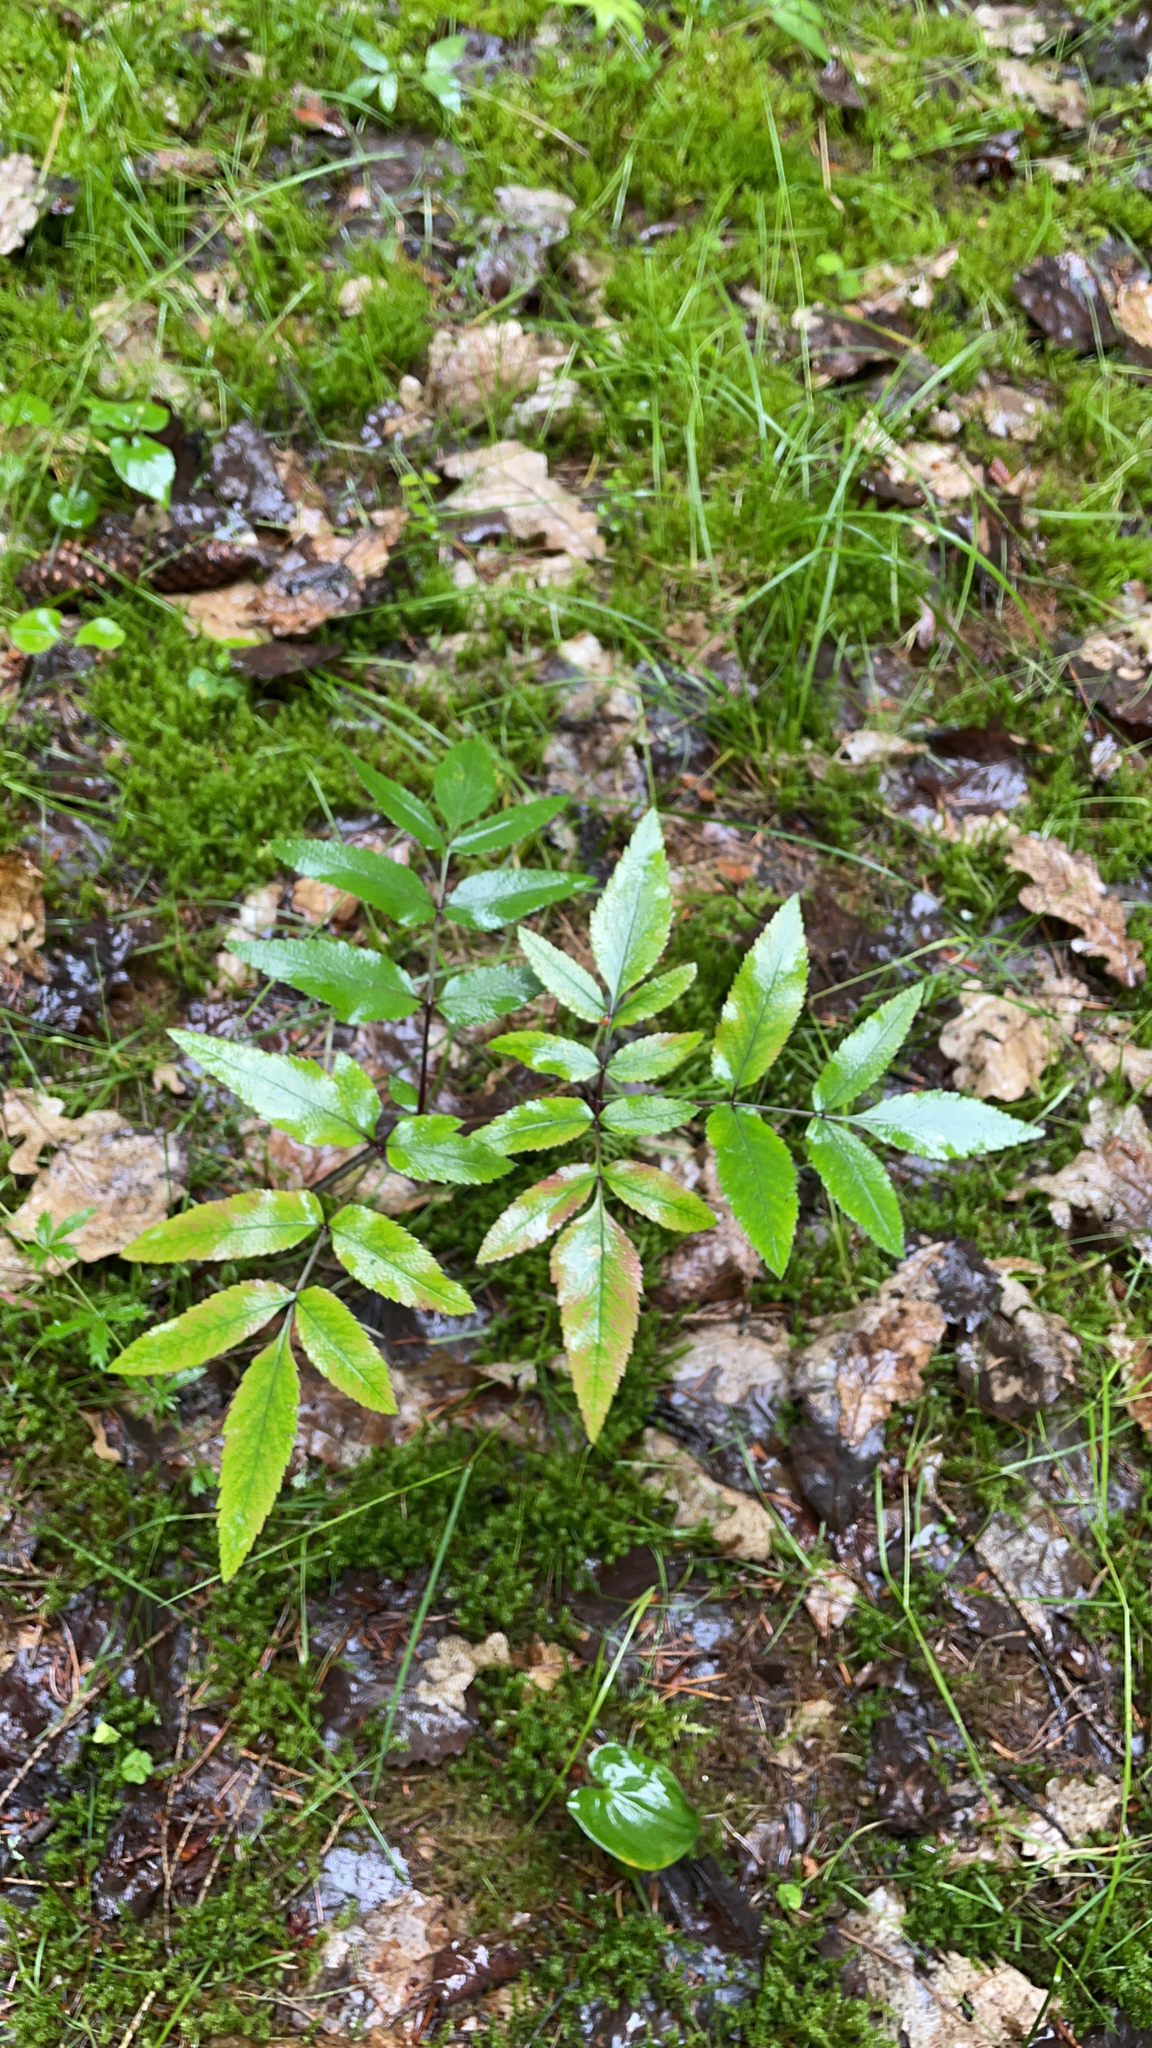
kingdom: Plantae
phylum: Tracheophyta
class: Magnoliopsida
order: Apiales
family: Apiaceae
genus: Angelica
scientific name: Angelica sylvestris
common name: Wild angelica
